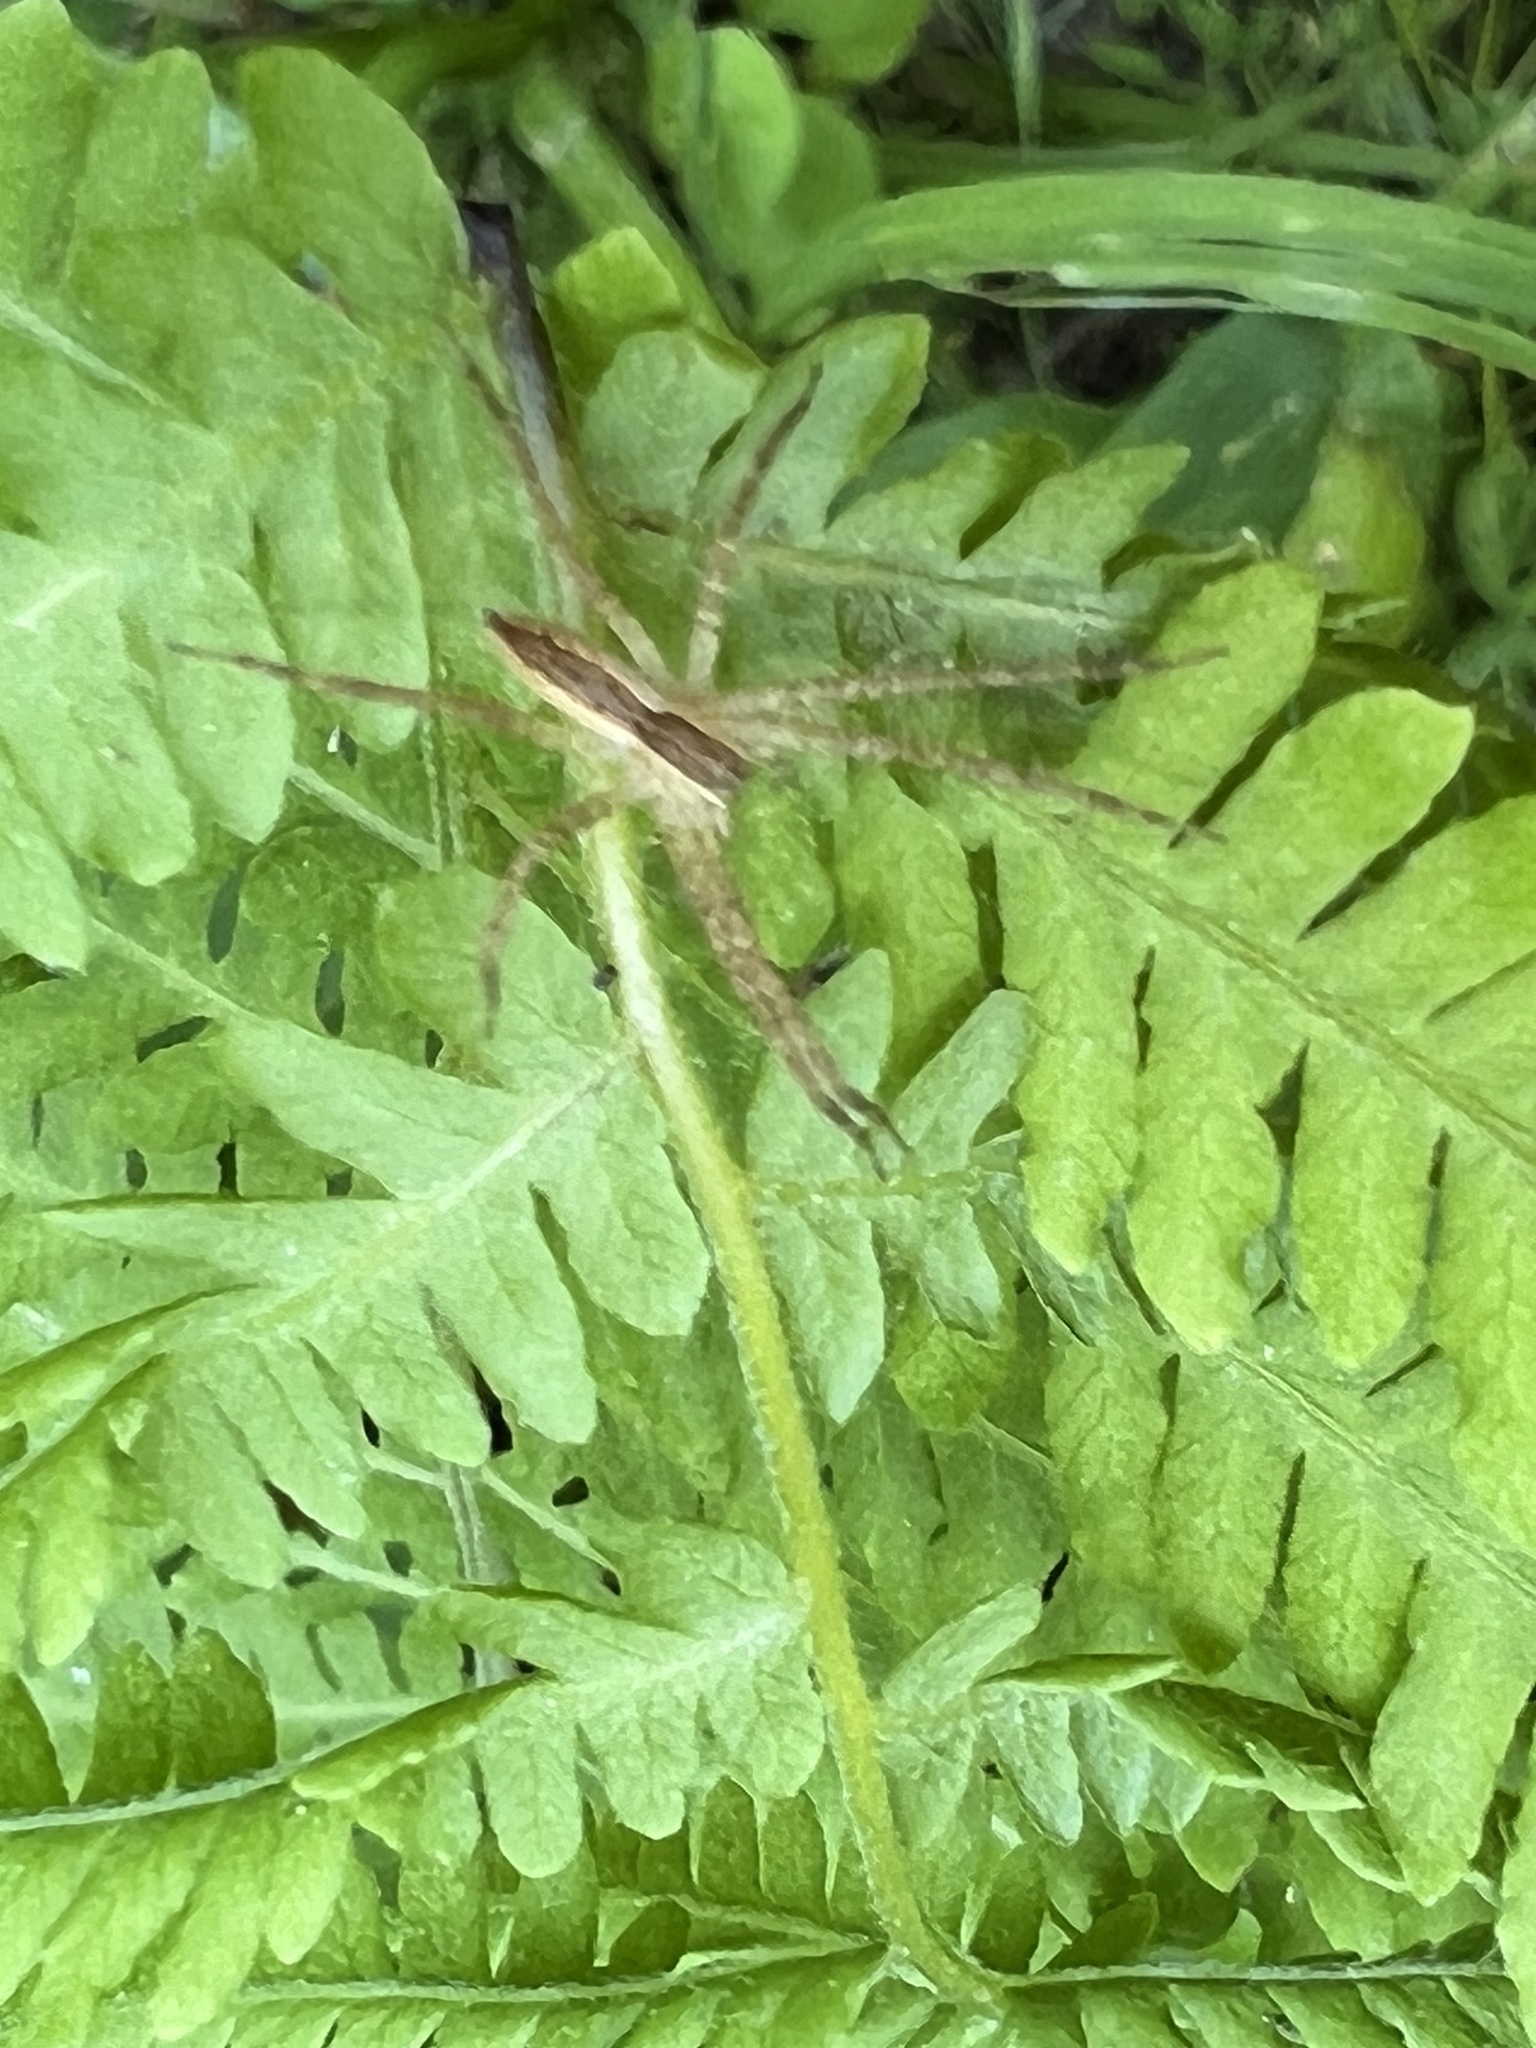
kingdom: Animalia
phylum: Arthropoda
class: Arachnida
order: Araneae
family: Pisauridae
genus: Pisaurina
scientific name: Pisaurina mira
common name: American nursery web spider
